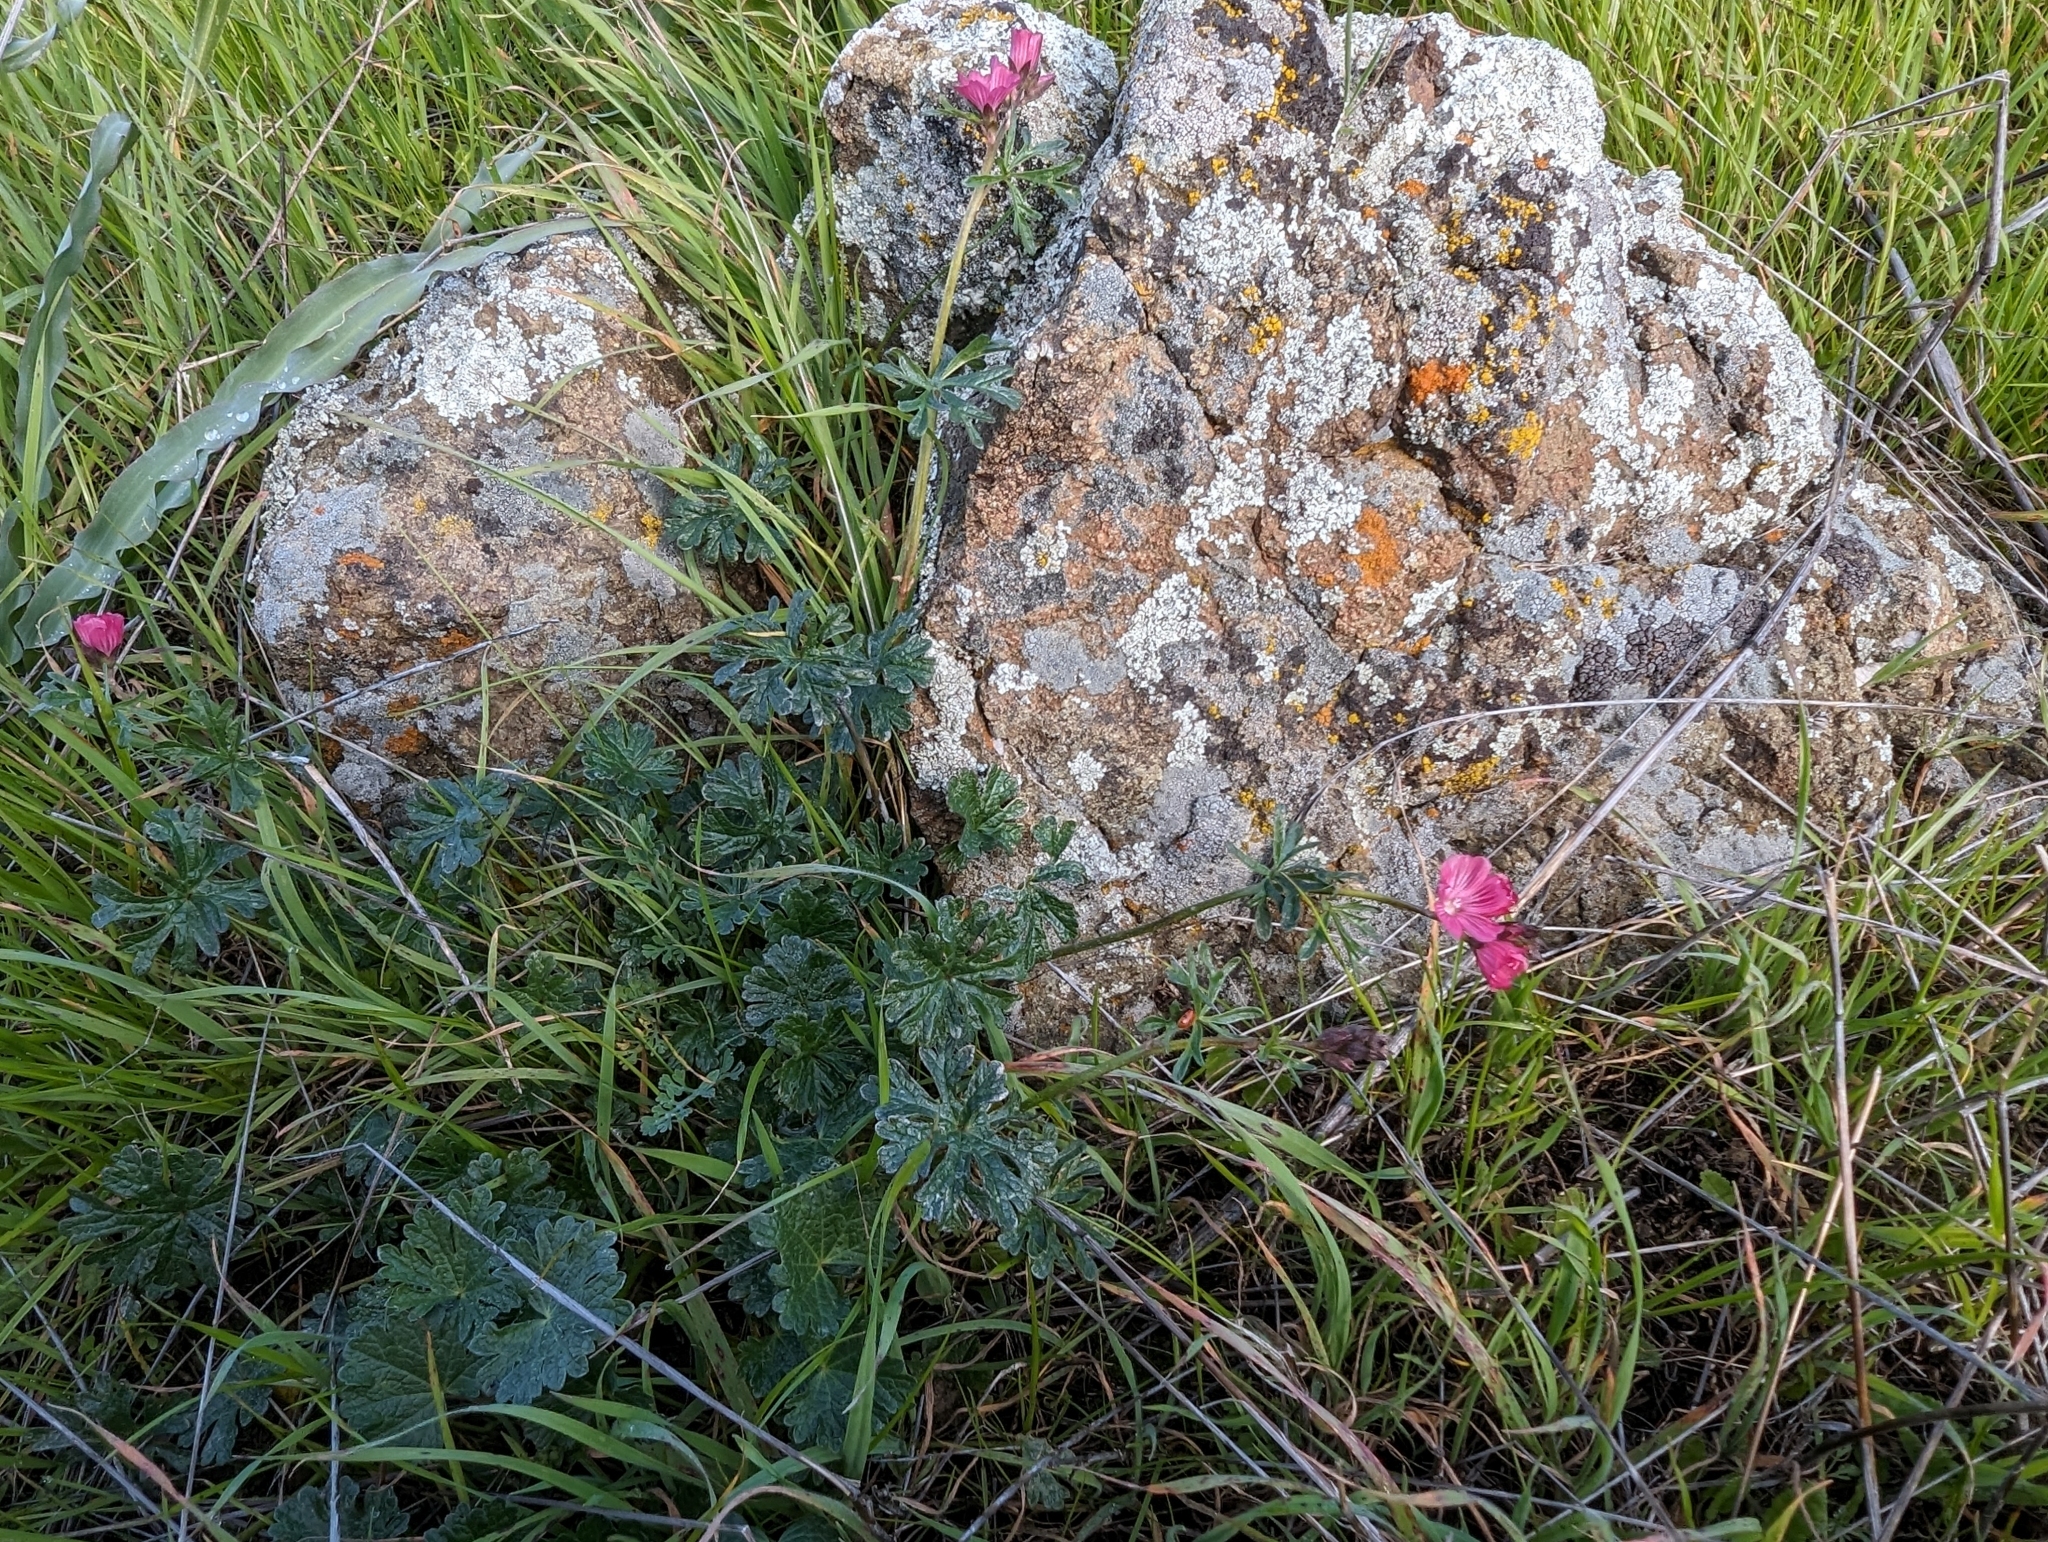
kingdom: Plantae
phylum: Tracheophyta
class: Magnoliopsida
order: Malvales
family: Malvaceae
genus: Sidalcea
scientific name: Sidalcea malviflora
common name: Greek mallow
